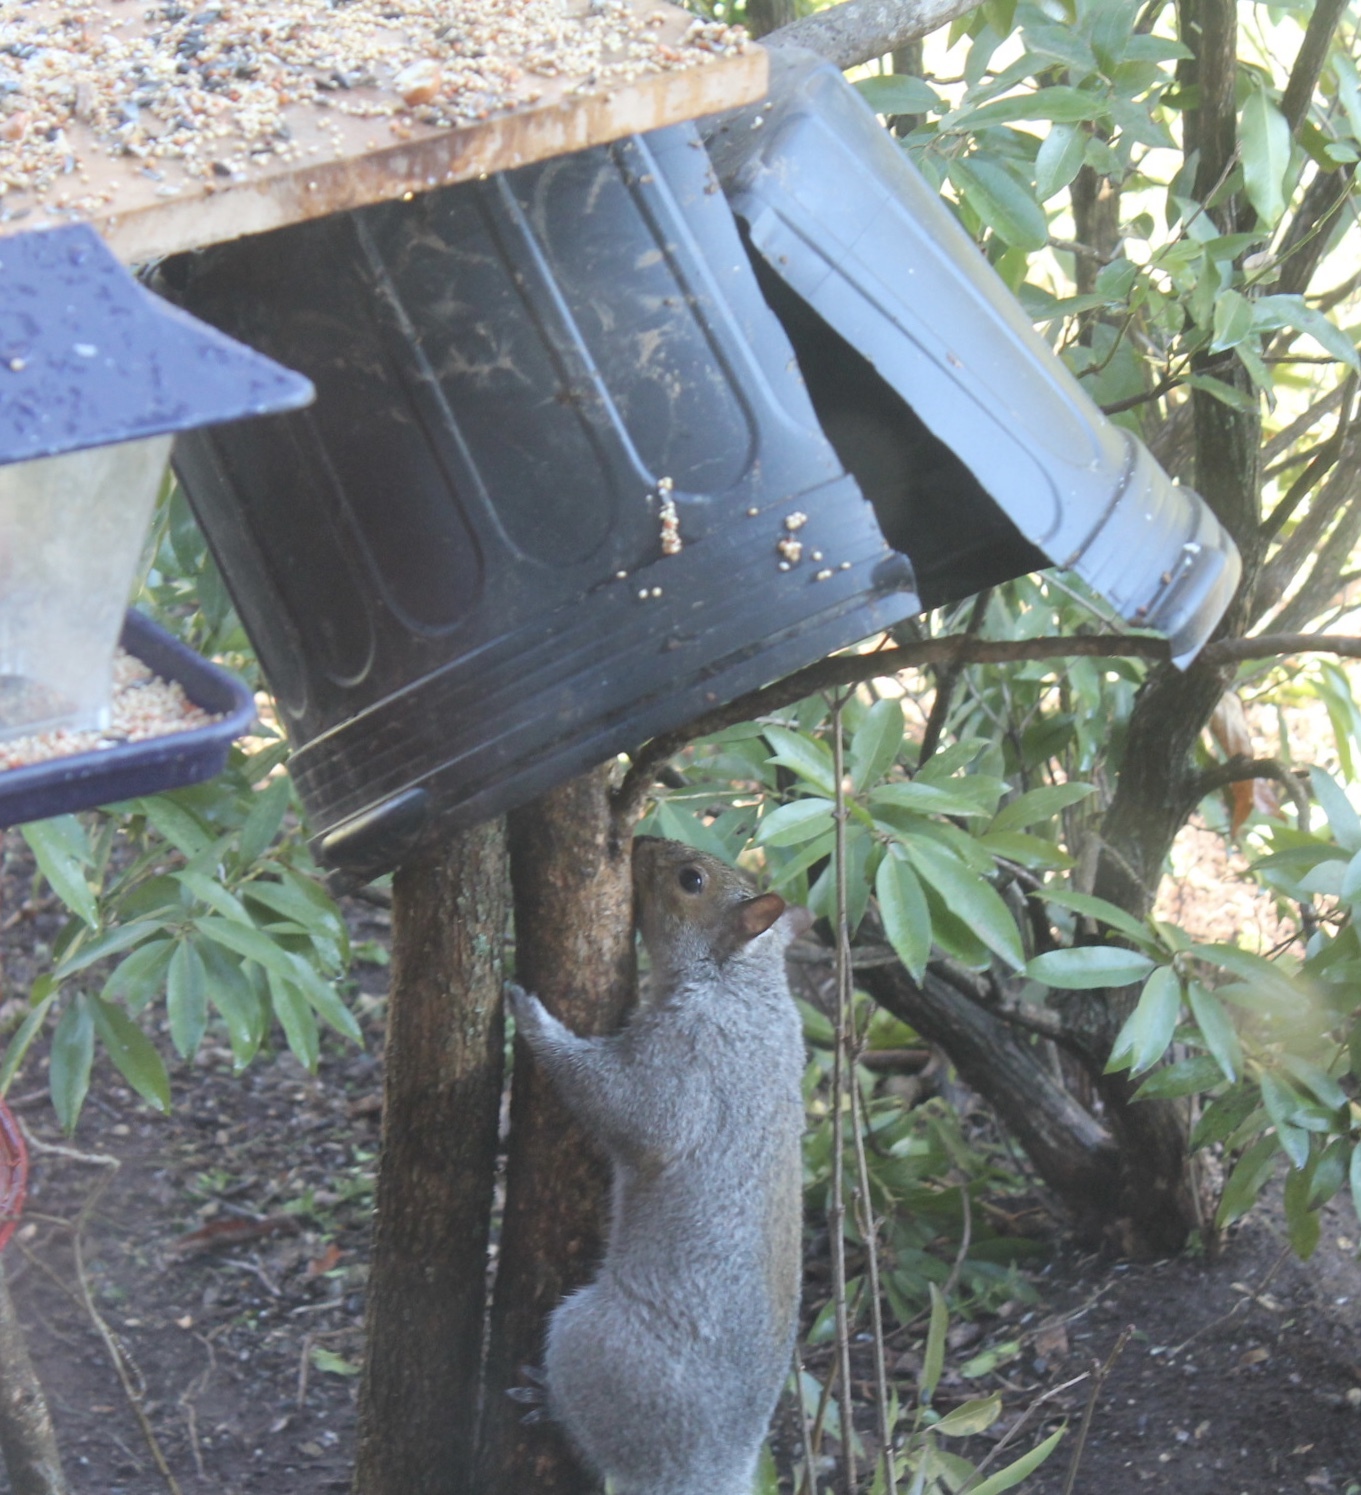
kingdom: Animalia
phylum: Chordata
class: Mammalia
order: Rodentia
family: Sciuridae
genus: Sciurus
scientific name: Sciurus carolinensis
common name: Eastern gray squirrel
